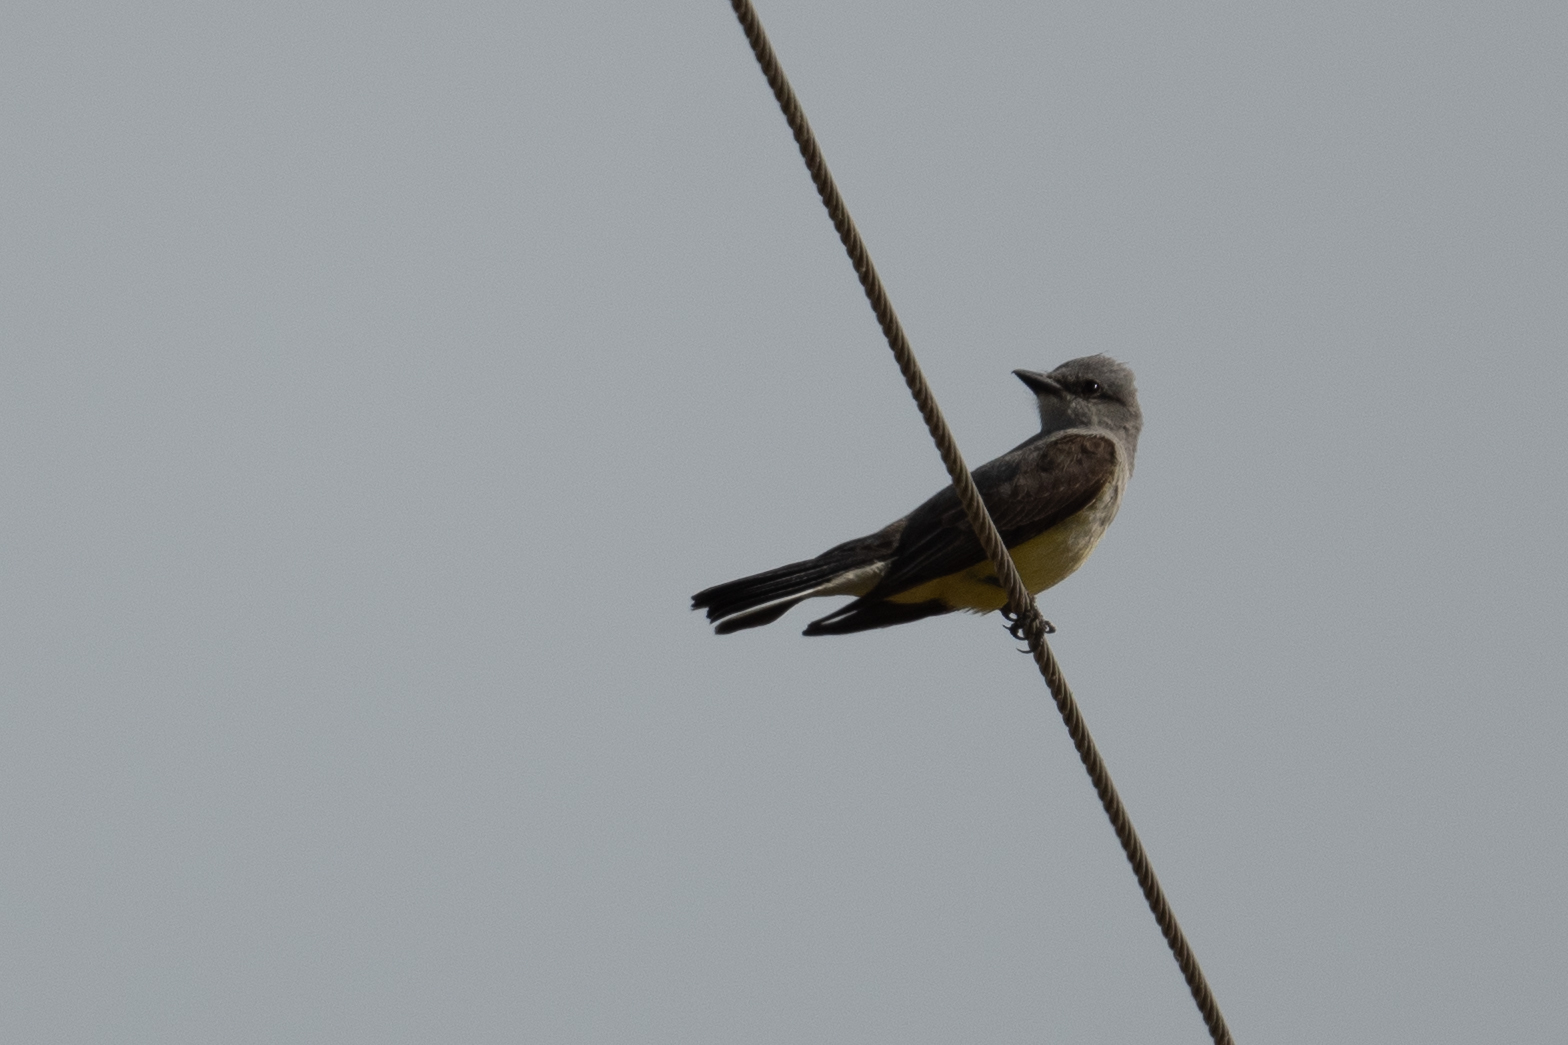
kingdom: Animalia
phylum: Chordata
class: Aves
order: Passeriformes
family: Tyrannidae
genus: Tyrannus
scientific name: Tyrannus verticalis
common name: Western kingbird
